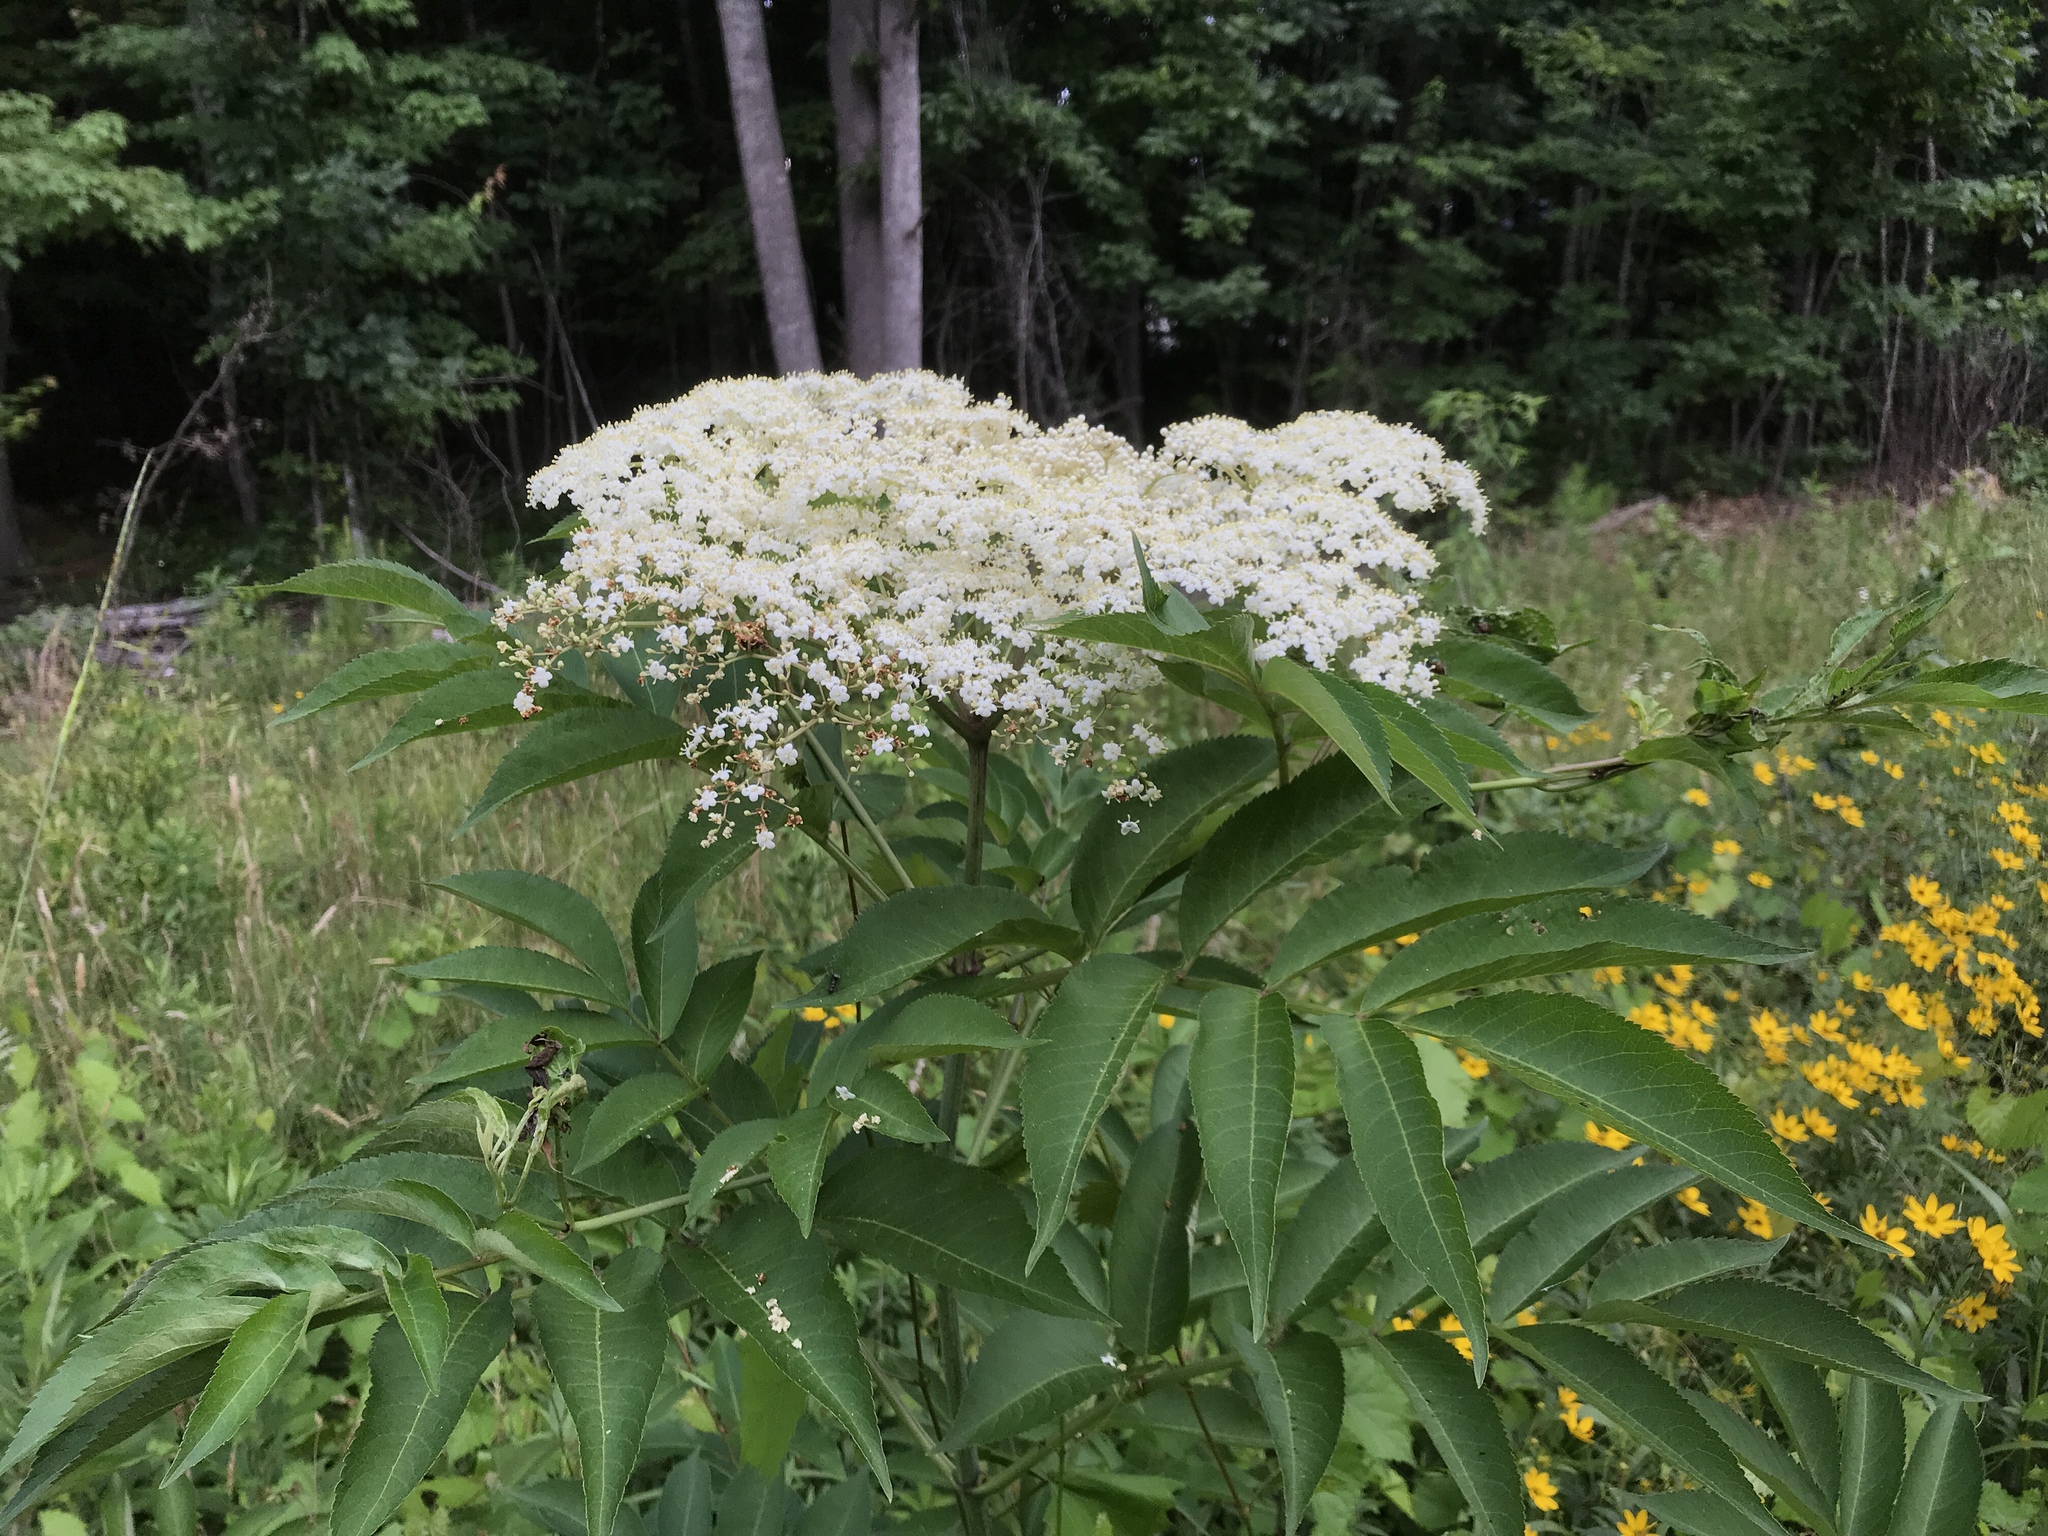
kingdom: Plantae
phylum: Tracheophyta
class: Magnoliopsida
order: Dipsacales
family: Viburnaceae
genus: Sambucus
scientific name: Sambucus canadensis
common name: American elder
